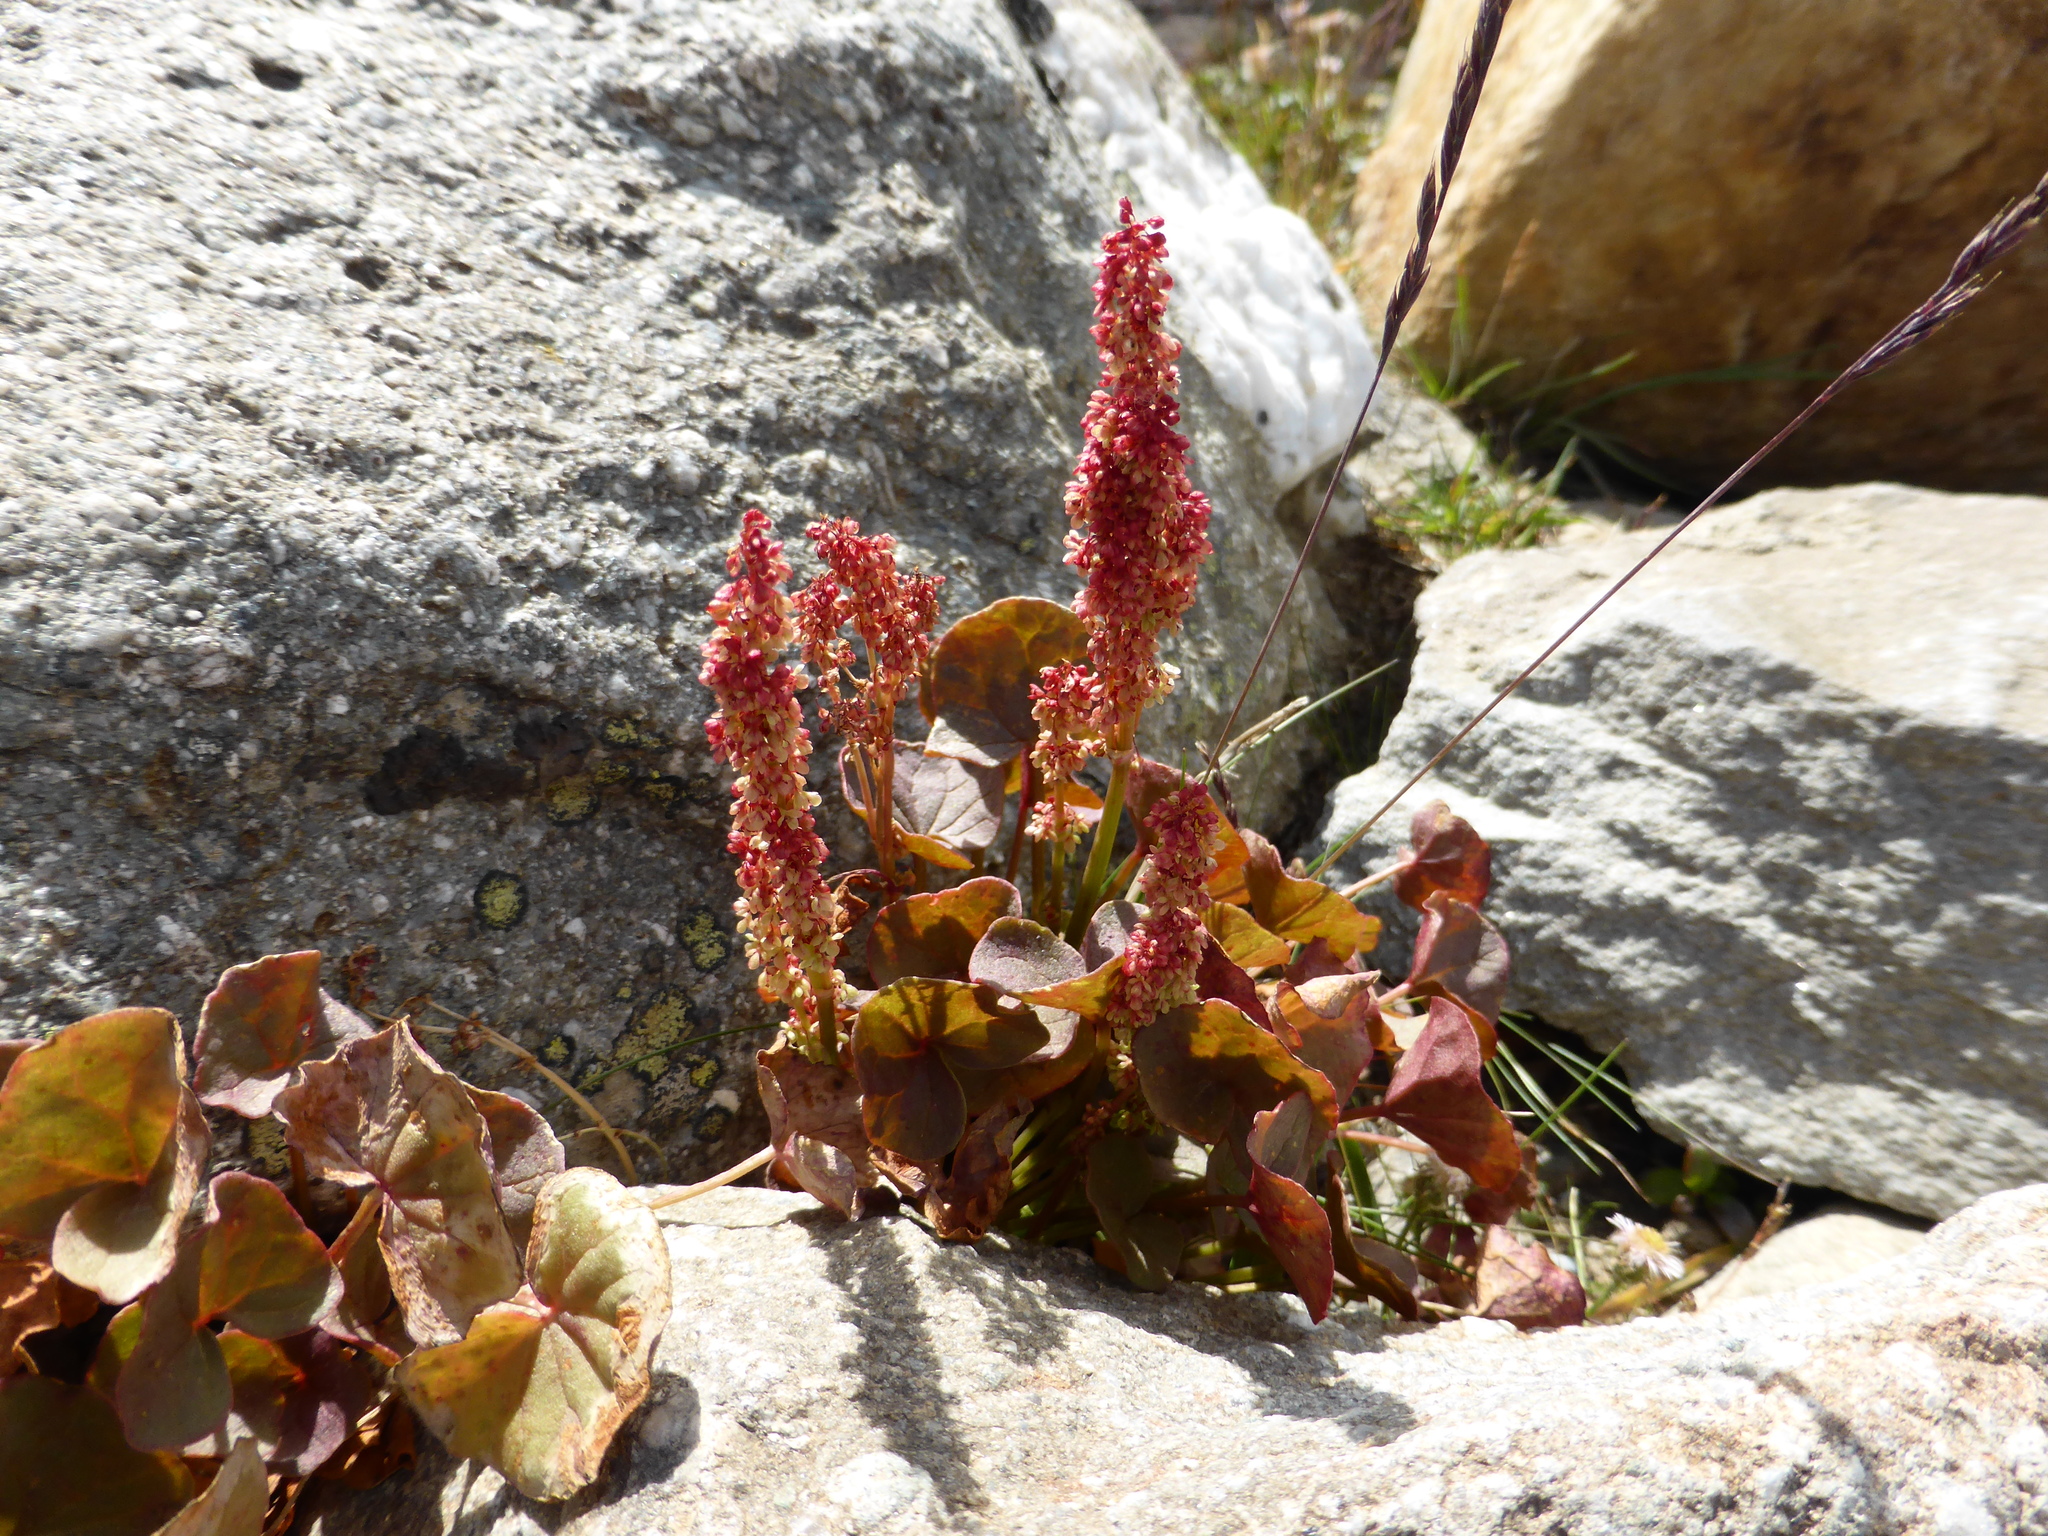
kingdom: Plantae
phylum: Tracheophyta
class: Magnoliopsida
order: Caryophyllales
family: Polygonaceae
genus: Oxyria
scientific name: Oxyria digyna
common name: Alpine mountain-sorrel
